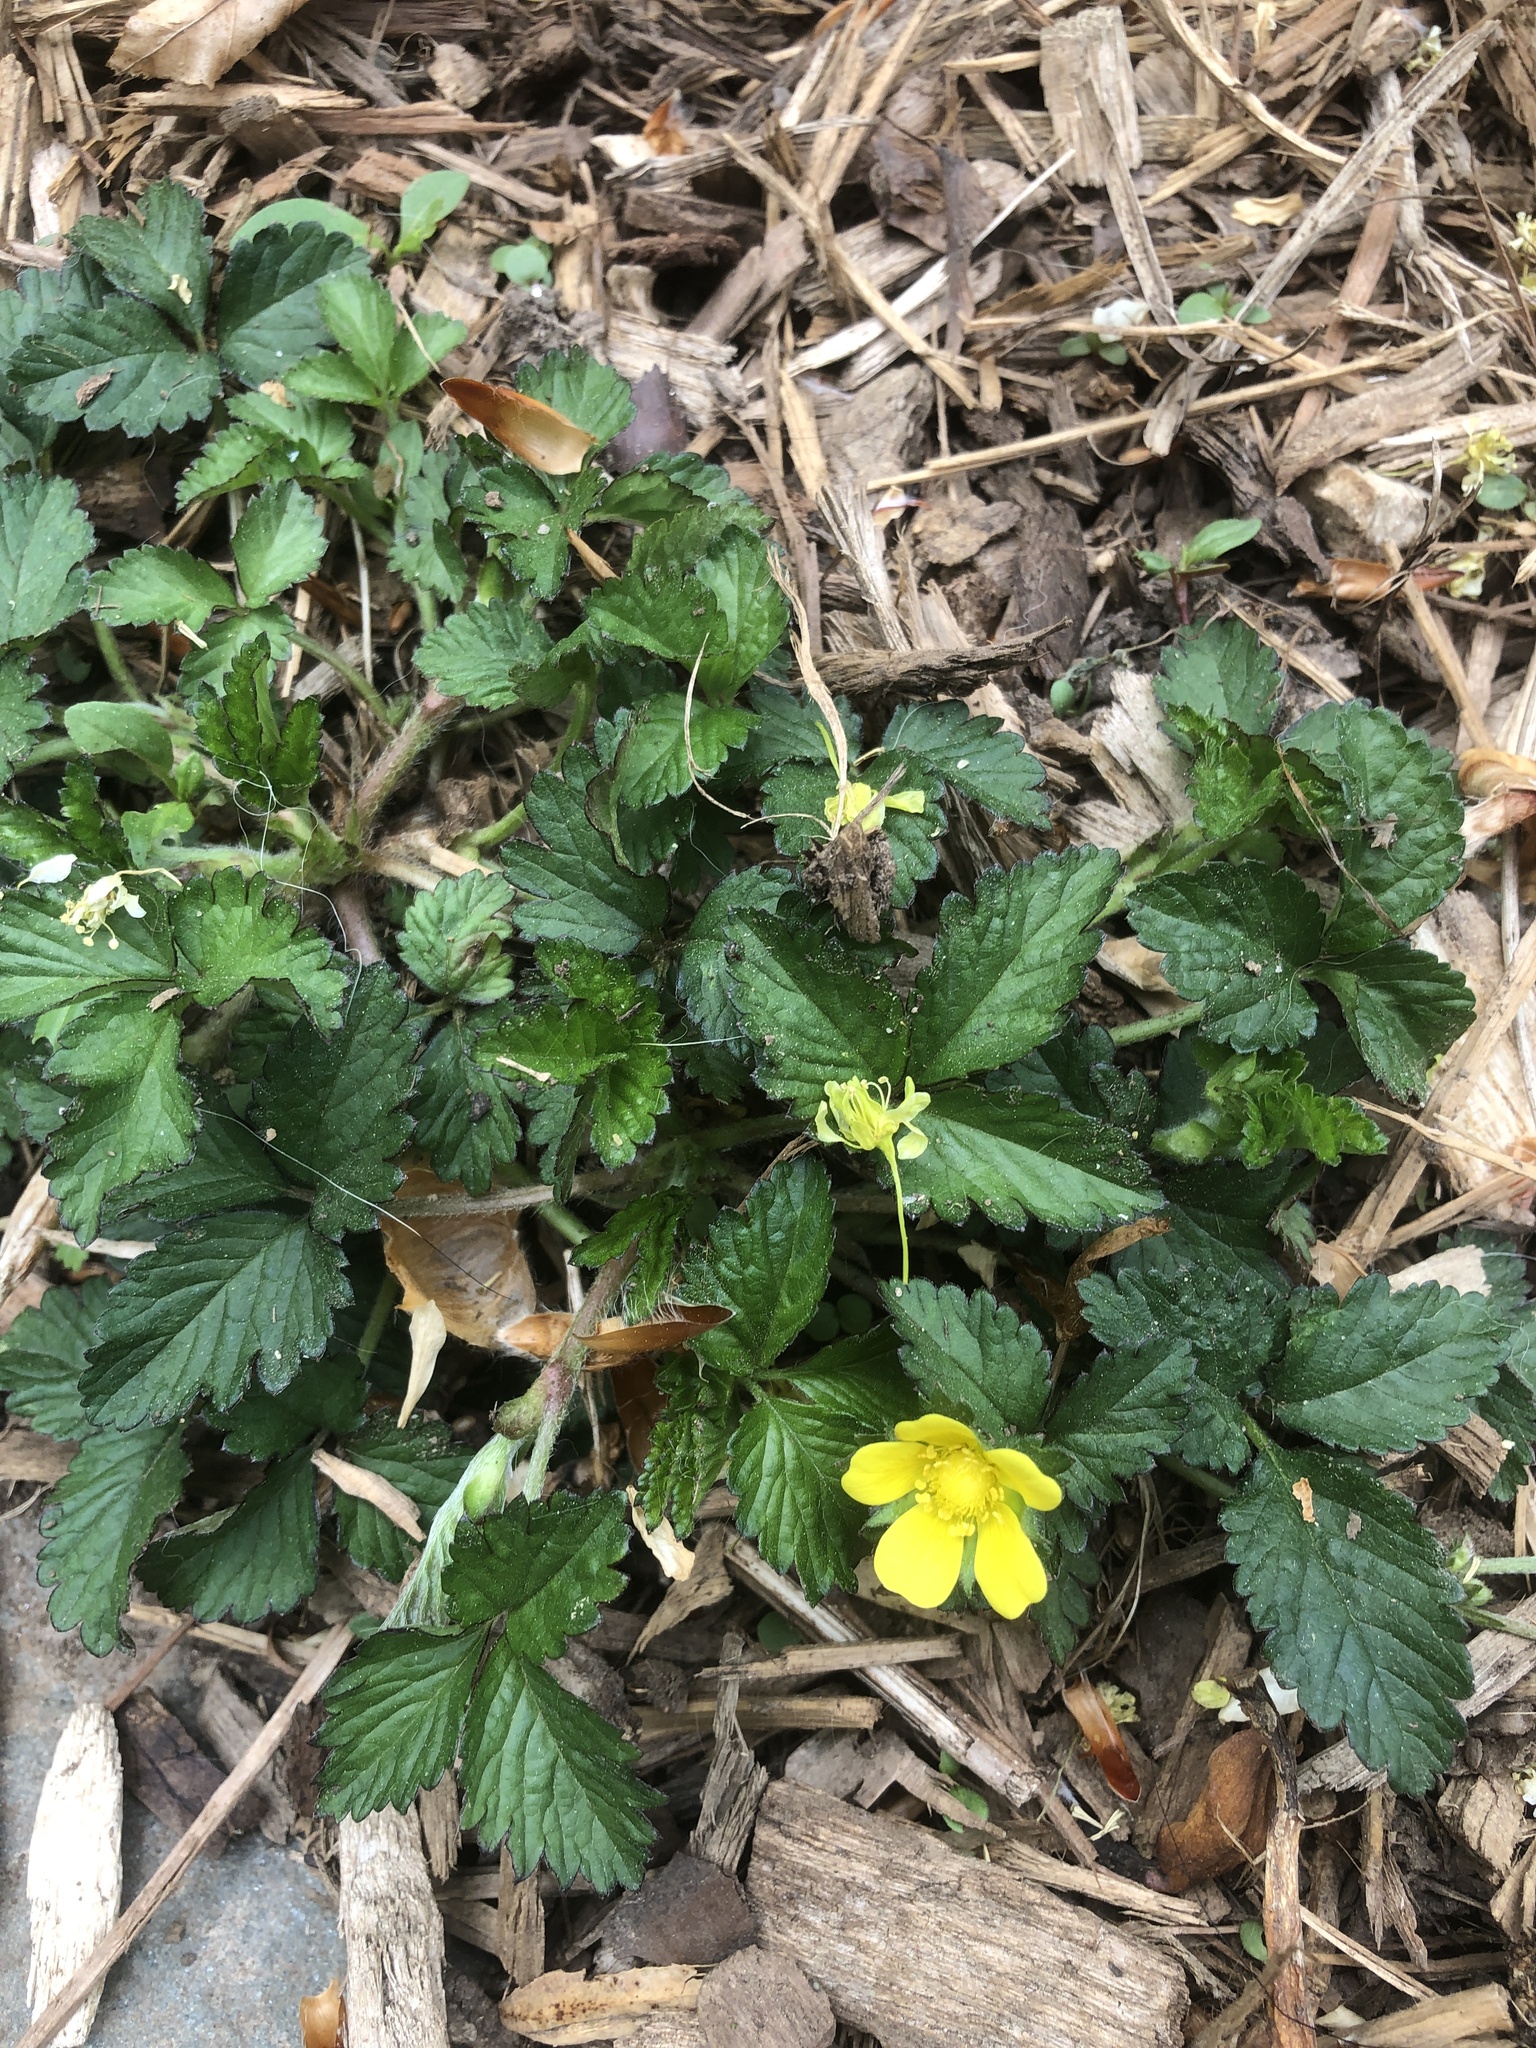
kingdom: Plantae
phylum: Tracheophyta
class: Magnoliopsida
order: Rosales
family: Rosaceae
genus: Potentilla
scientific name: Potentilla indica
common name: Yellow-flowered strawberry
